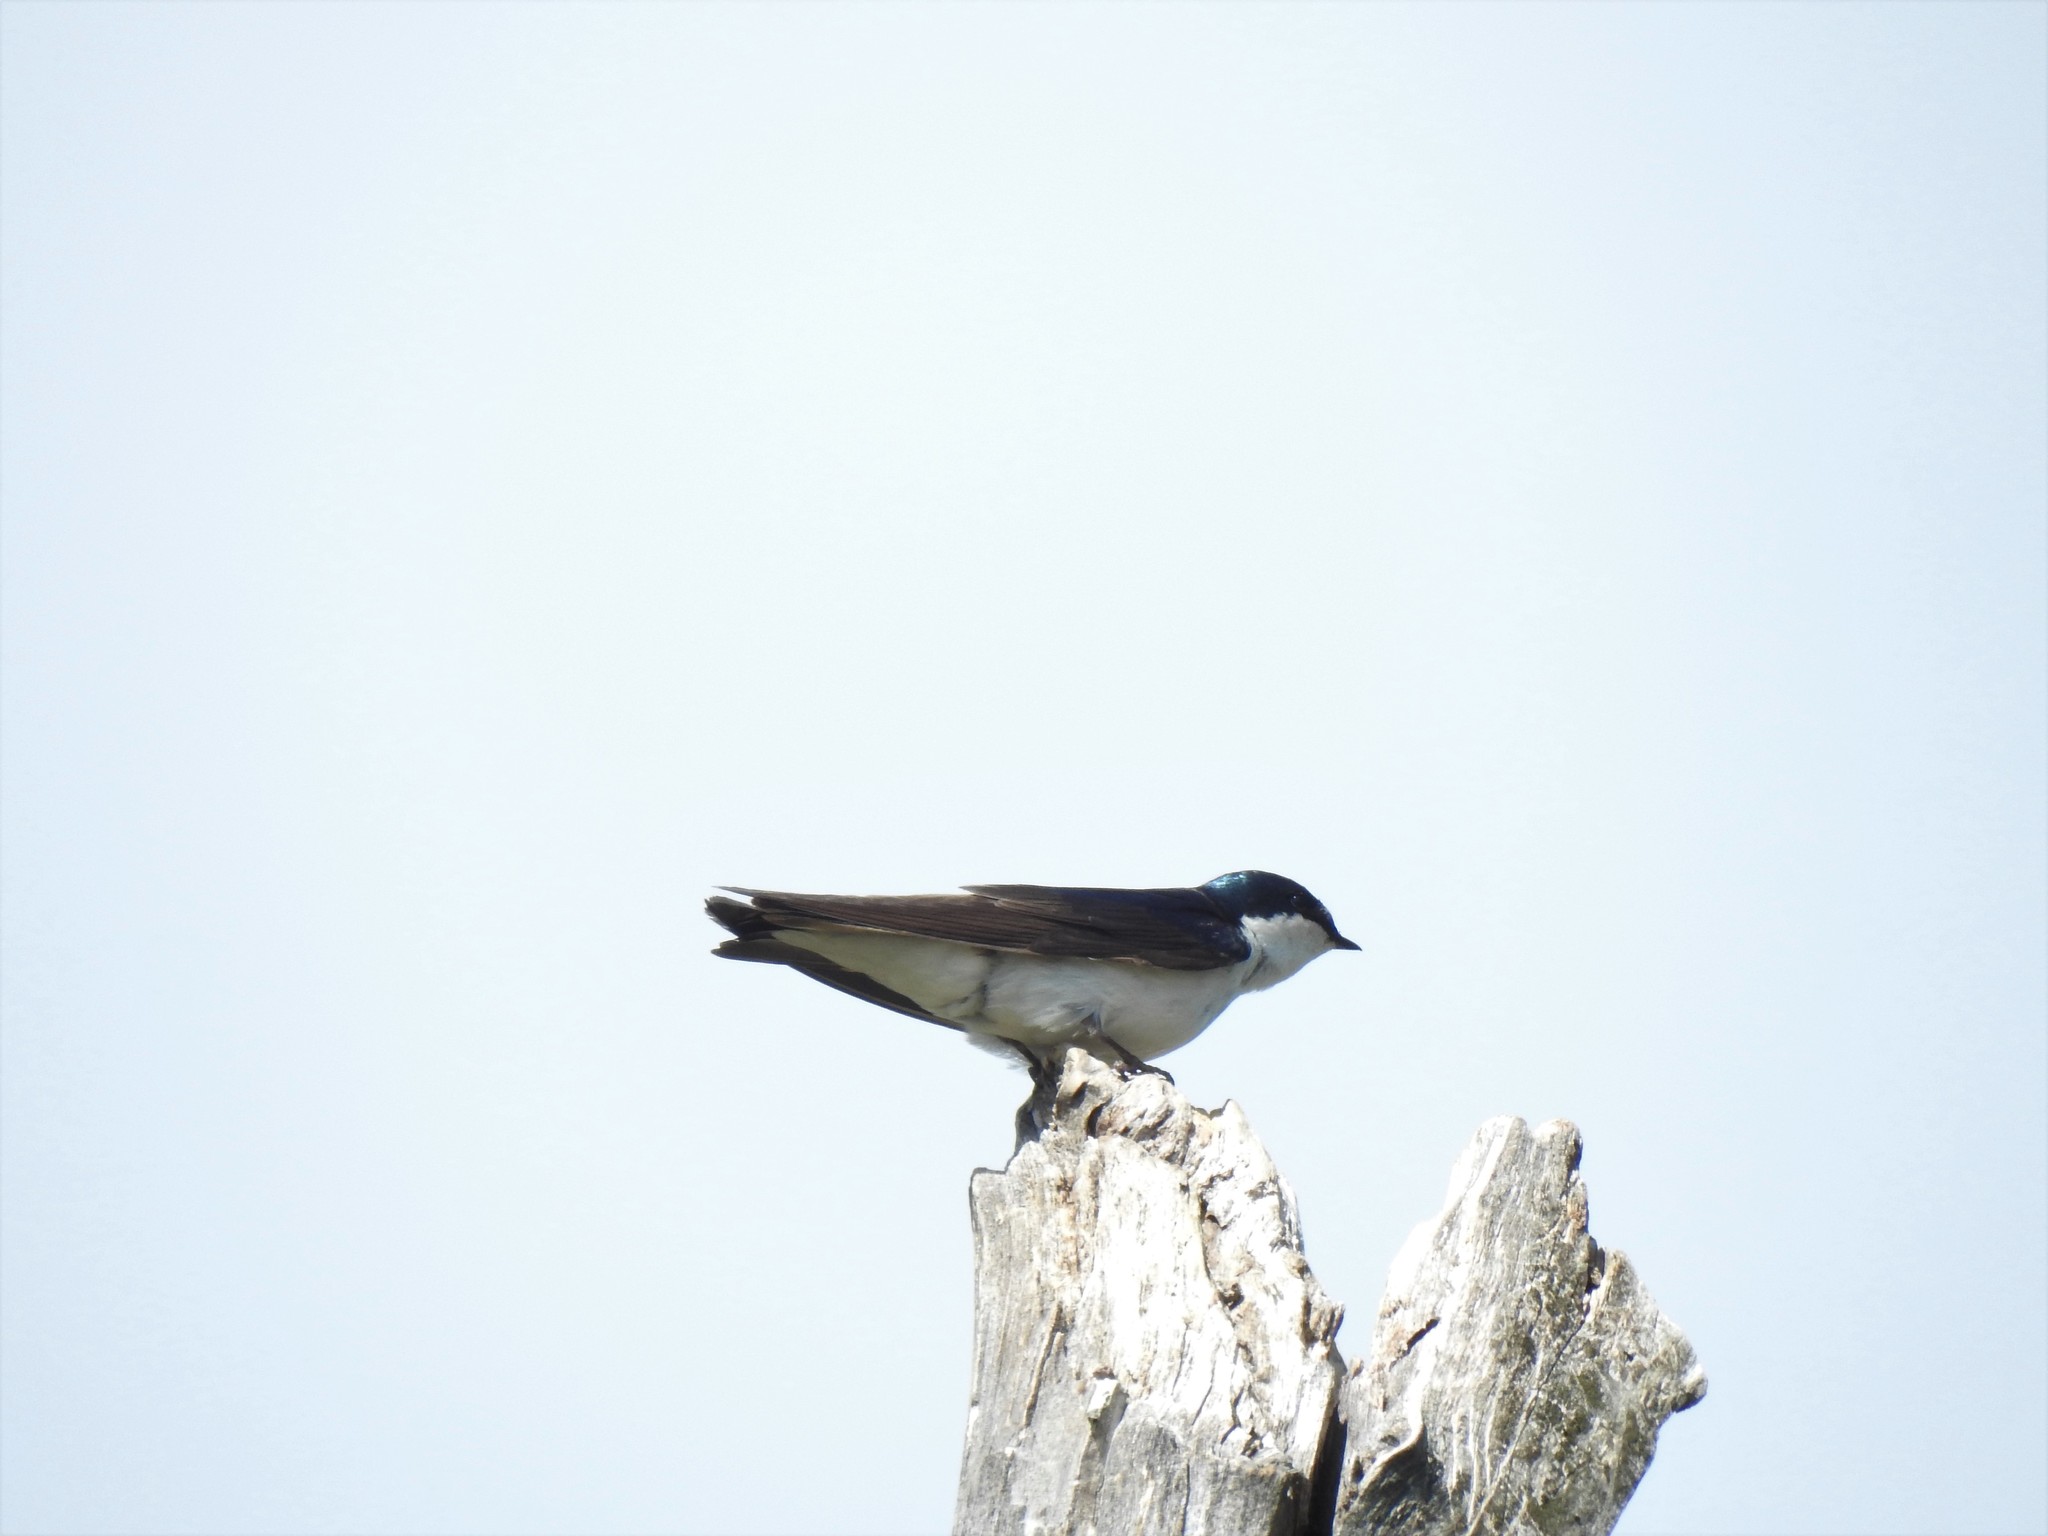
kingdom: Animalia
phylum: Chordata
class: Aves
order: Passeriformes
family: Hirundinidae
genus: Tachycineta
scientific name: Tachycineta bicolor
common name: Tree swallow
